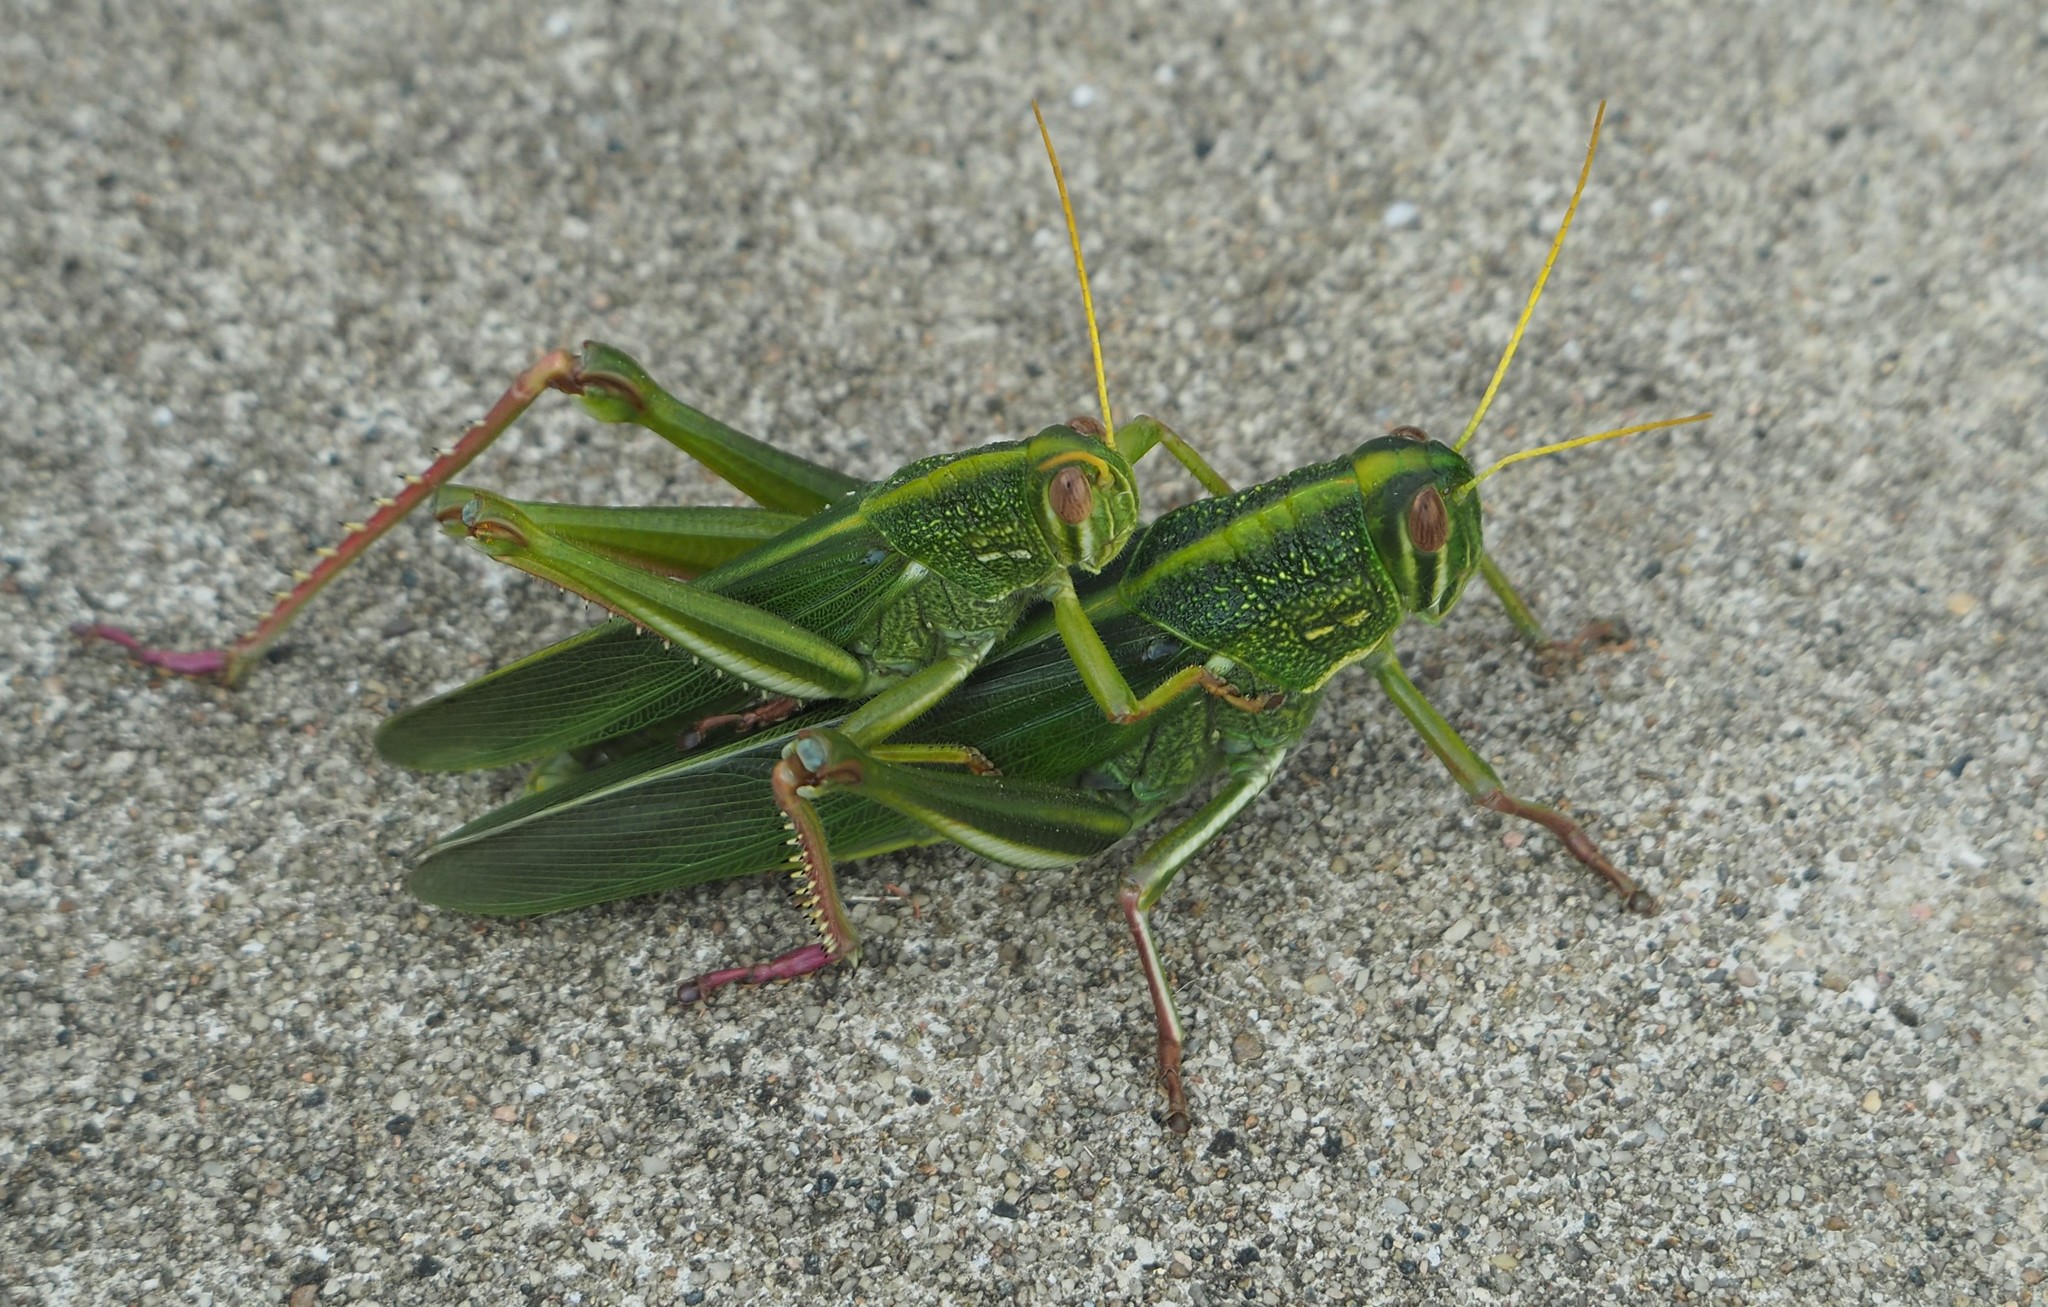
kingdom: Animalia
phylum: Arthropoda
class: Insecta
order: Orthoptera
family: Acrididae
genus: Chondracris
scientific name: Chondracris rosea
